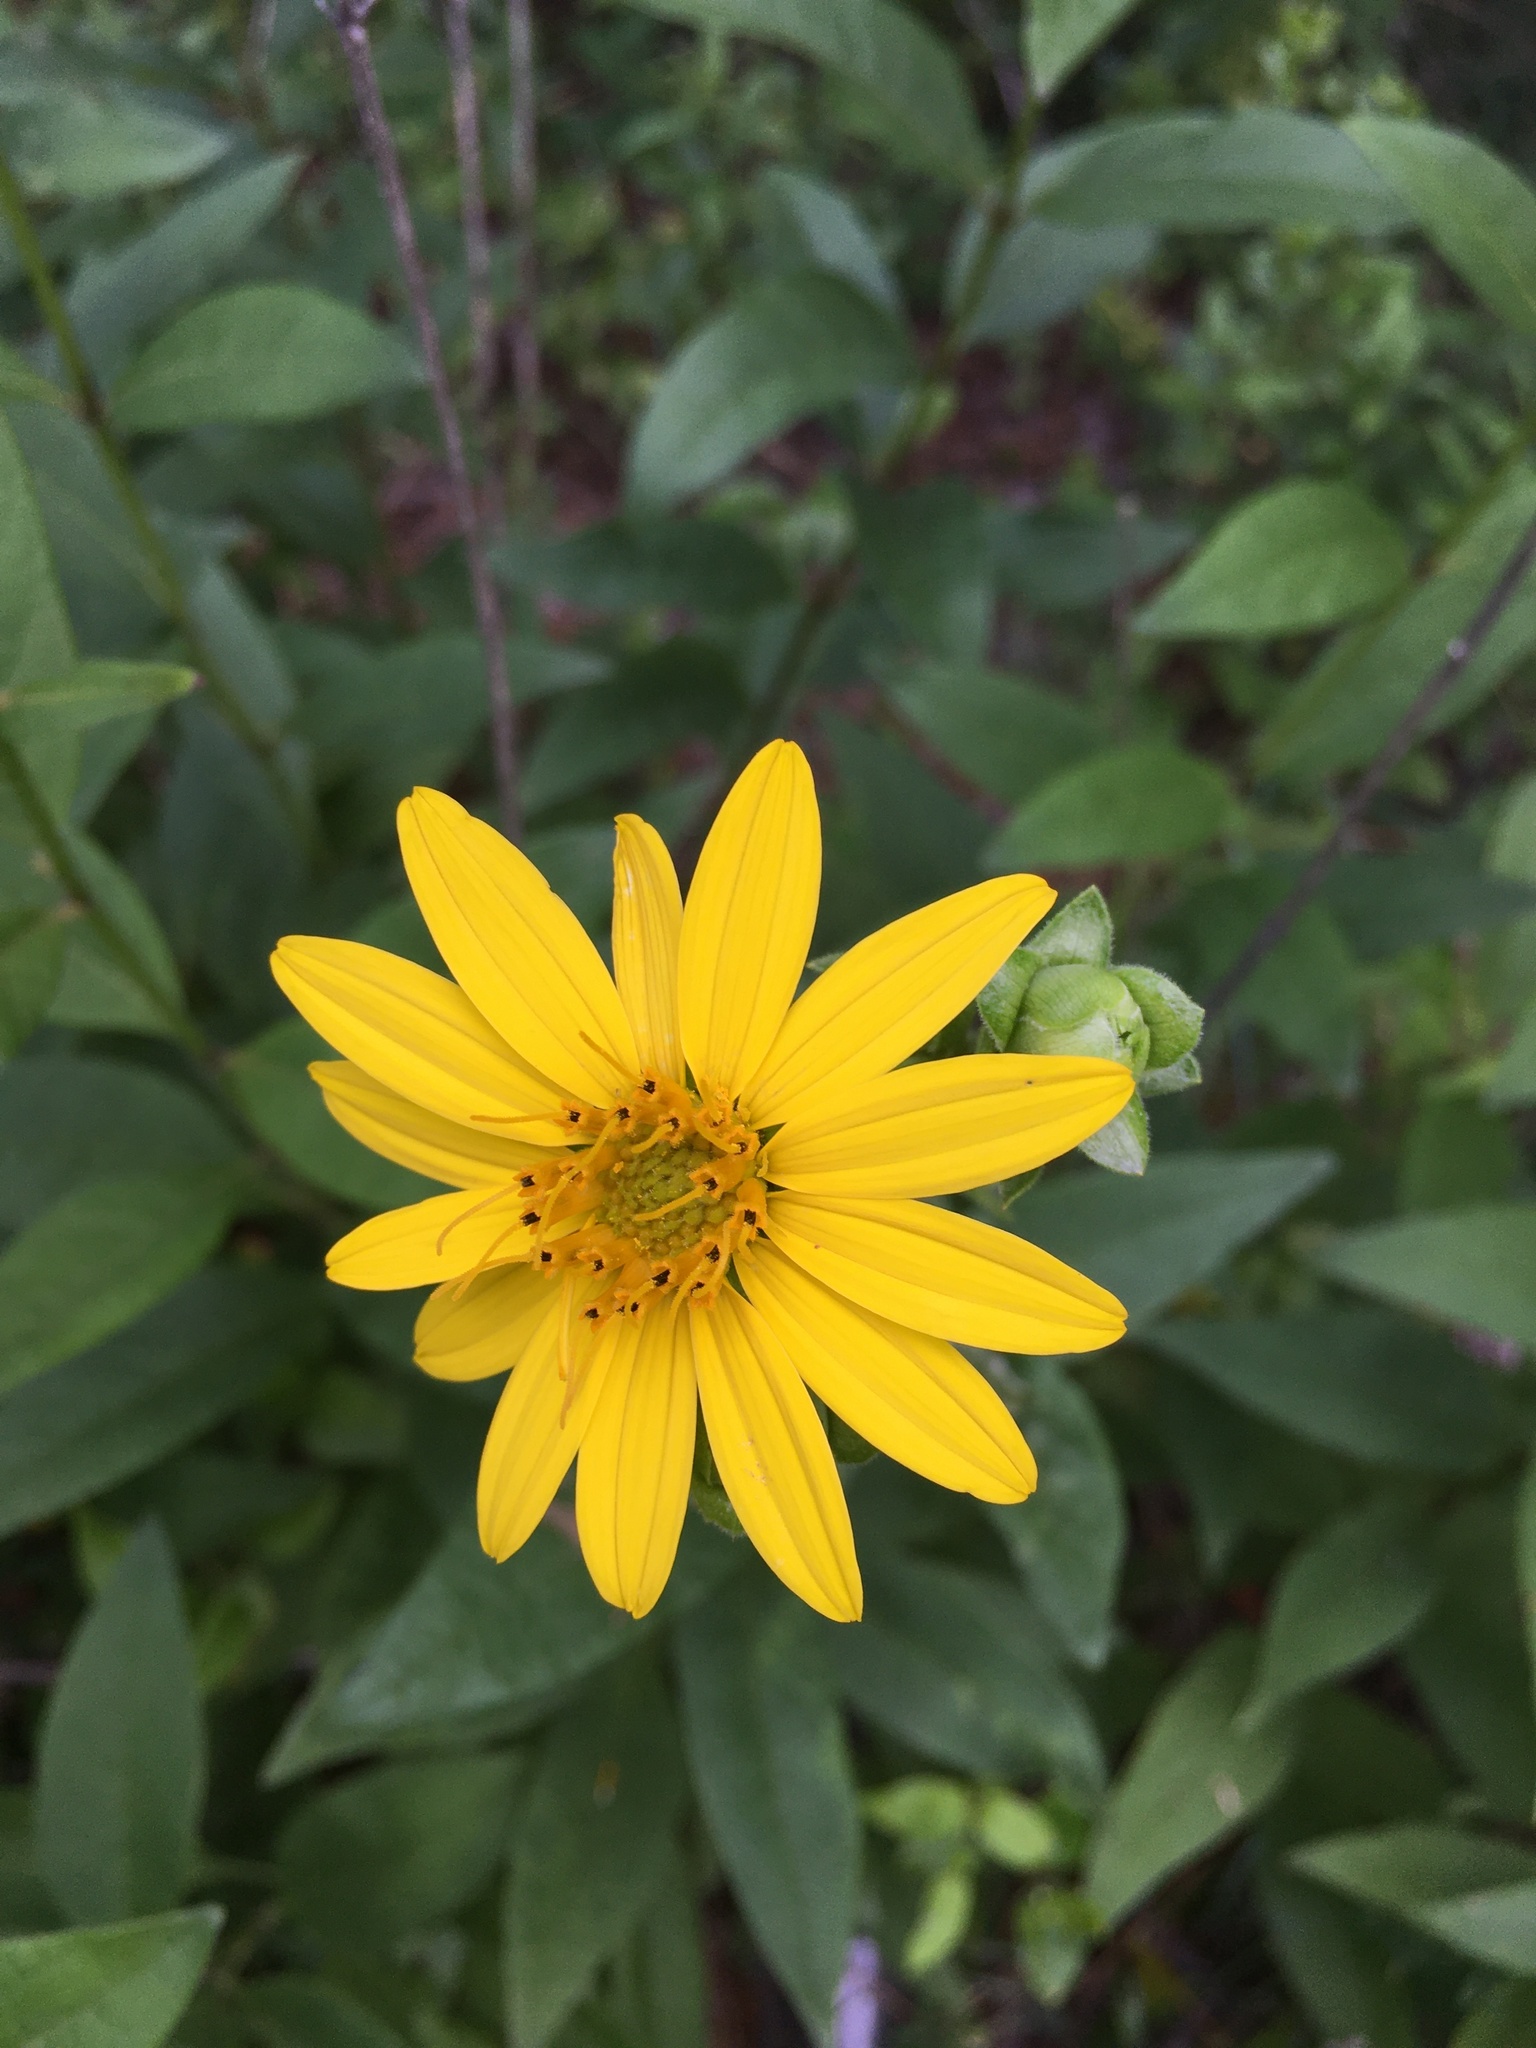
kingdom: Plantae
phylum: Tracheophyta
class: Magnoliopsida
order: Asterales
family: Asteraceae
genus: Silphium
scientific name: Silphium asteriscus
